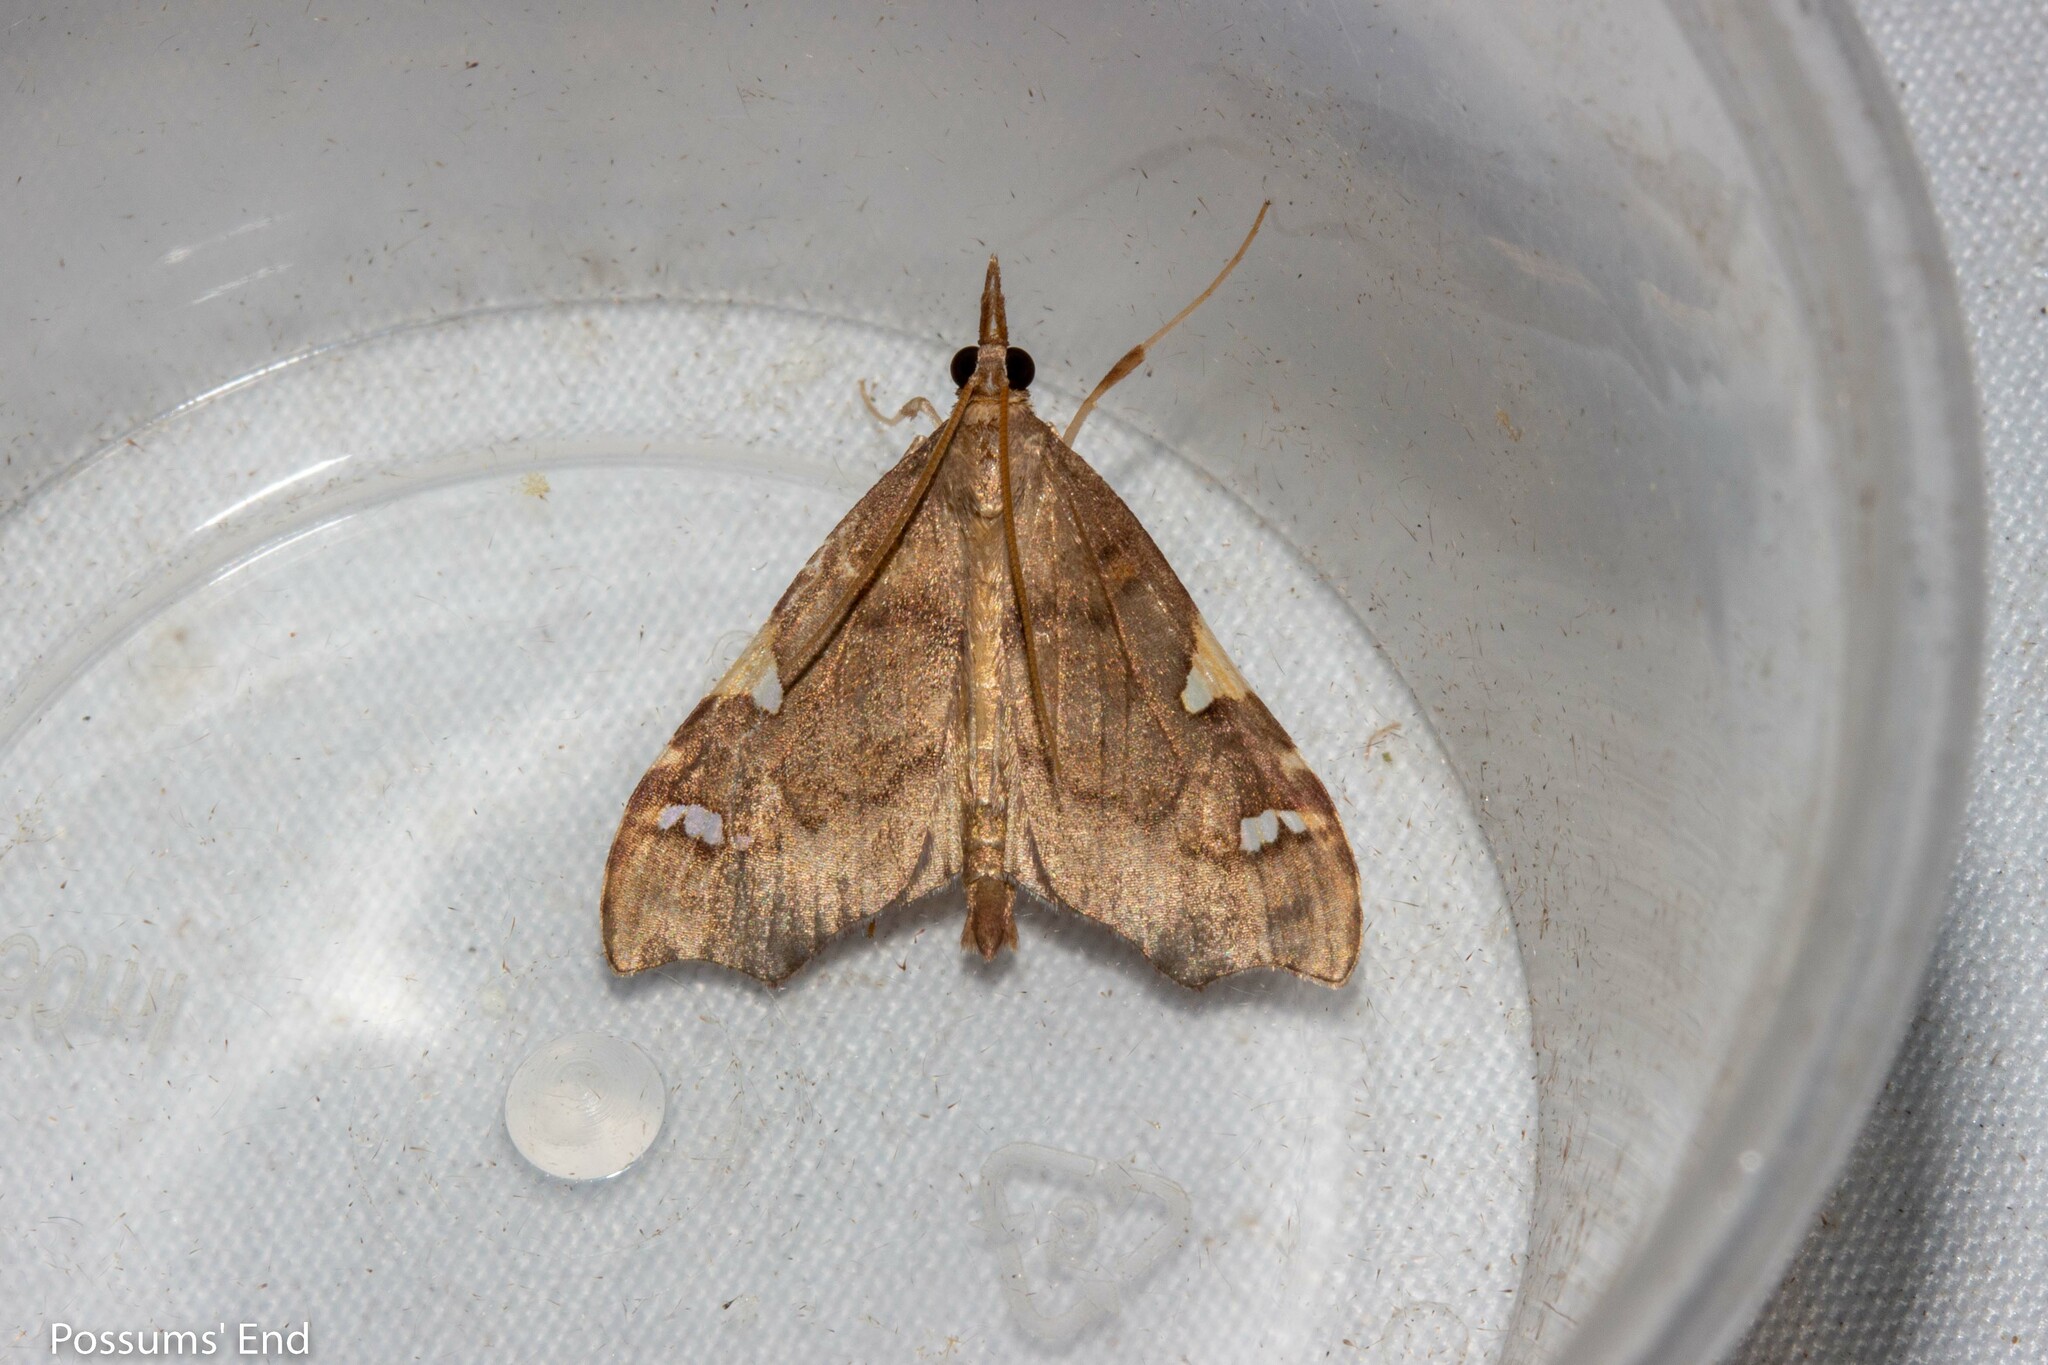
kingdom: Animalia
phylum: Arthropoda
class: Insecta
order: Lepidoptera
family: Crambidae
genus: Deana
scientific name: Deana hybreasalis
